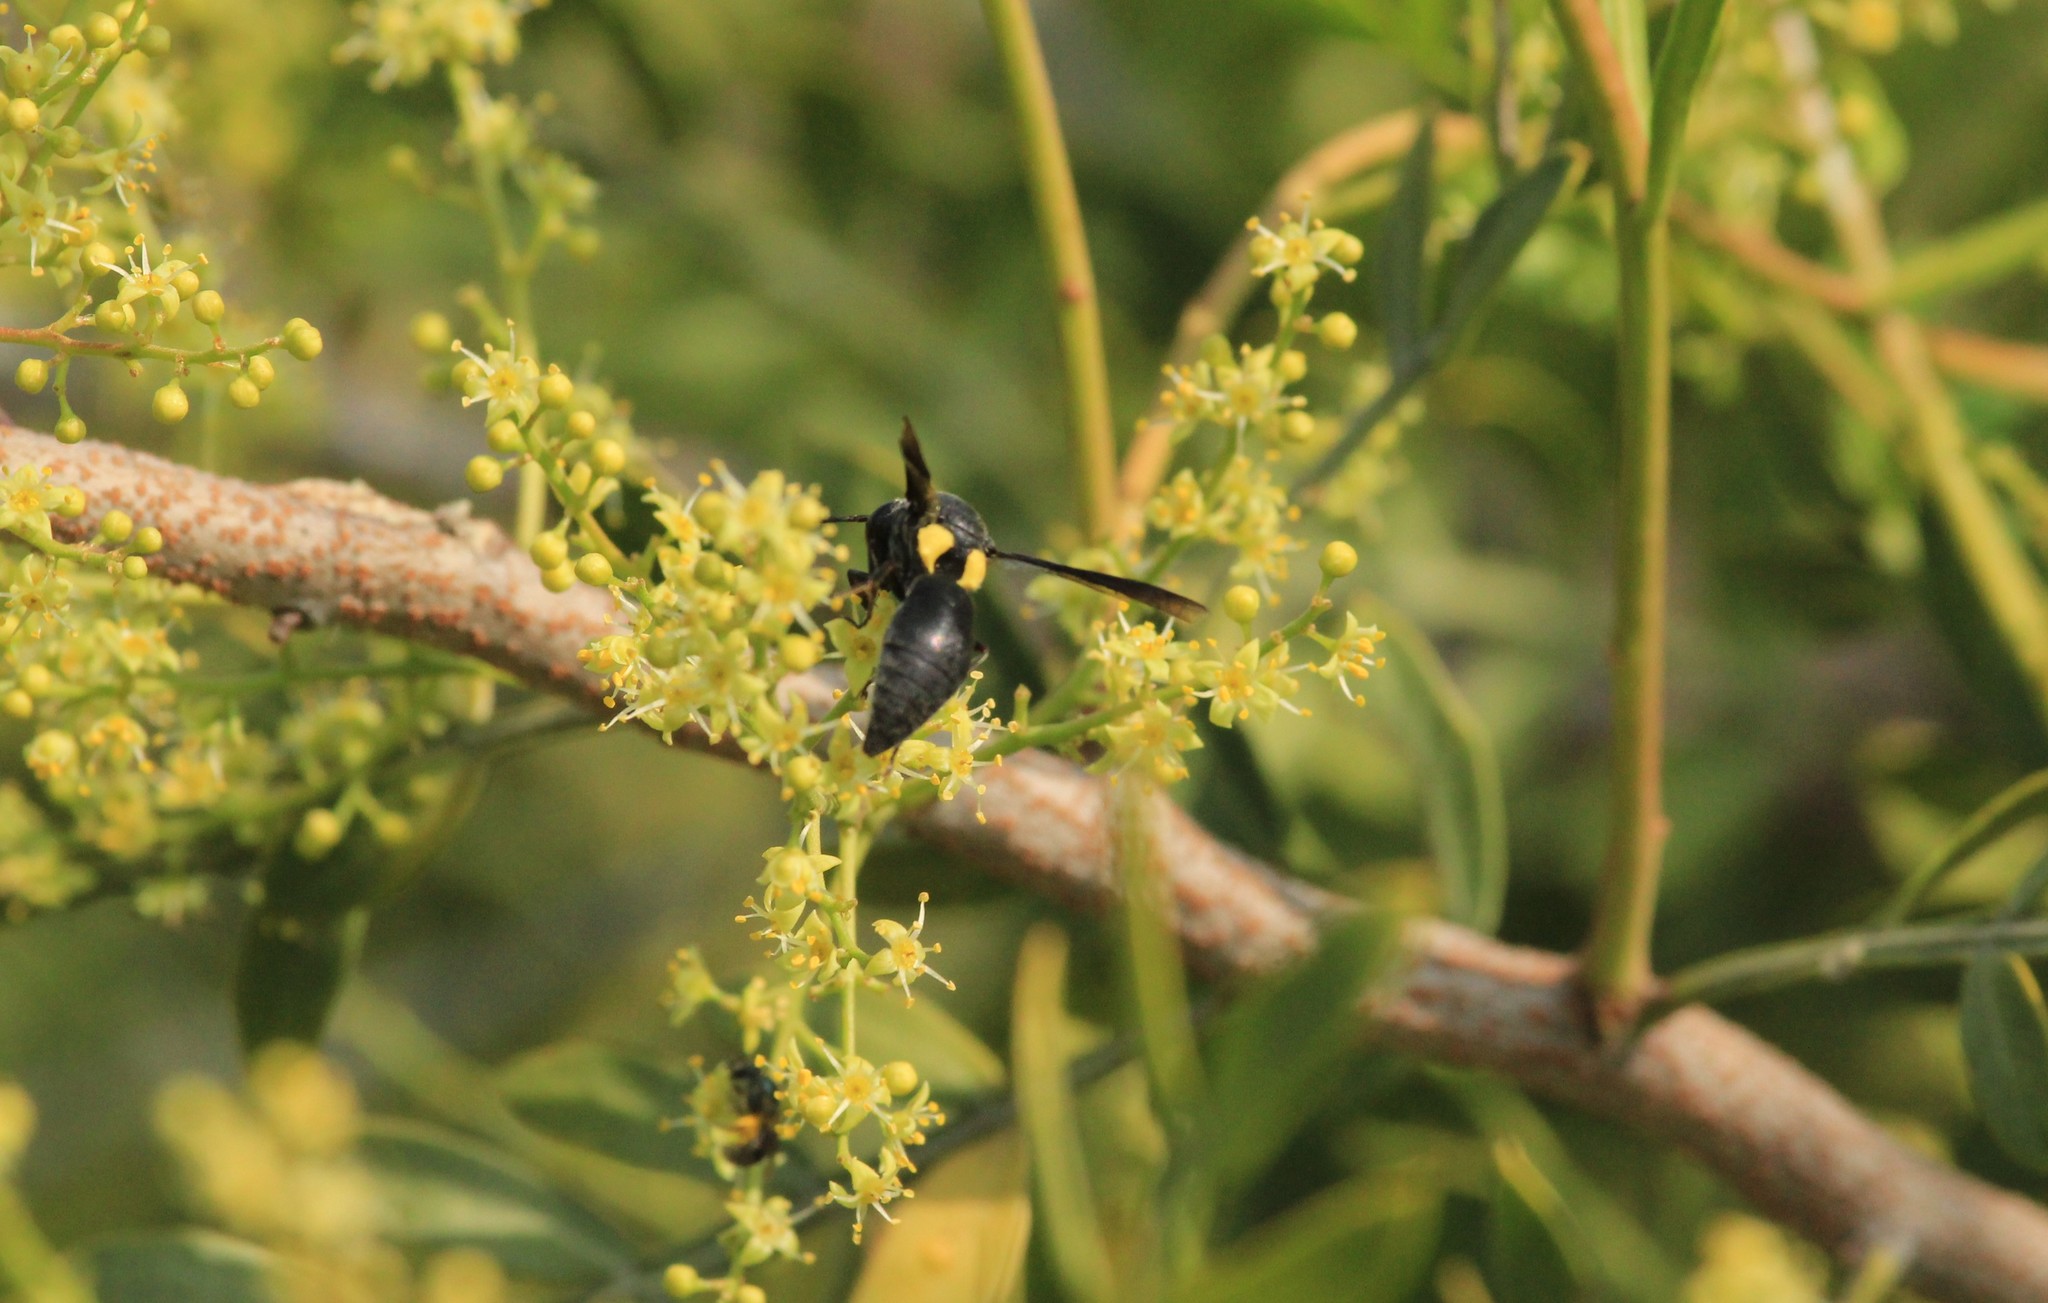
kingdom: Animalia
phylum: Arthropoda
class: Insecta
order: Hymenoptera
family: Eumenidae
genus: Monobia
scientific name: Monobia angulosa
